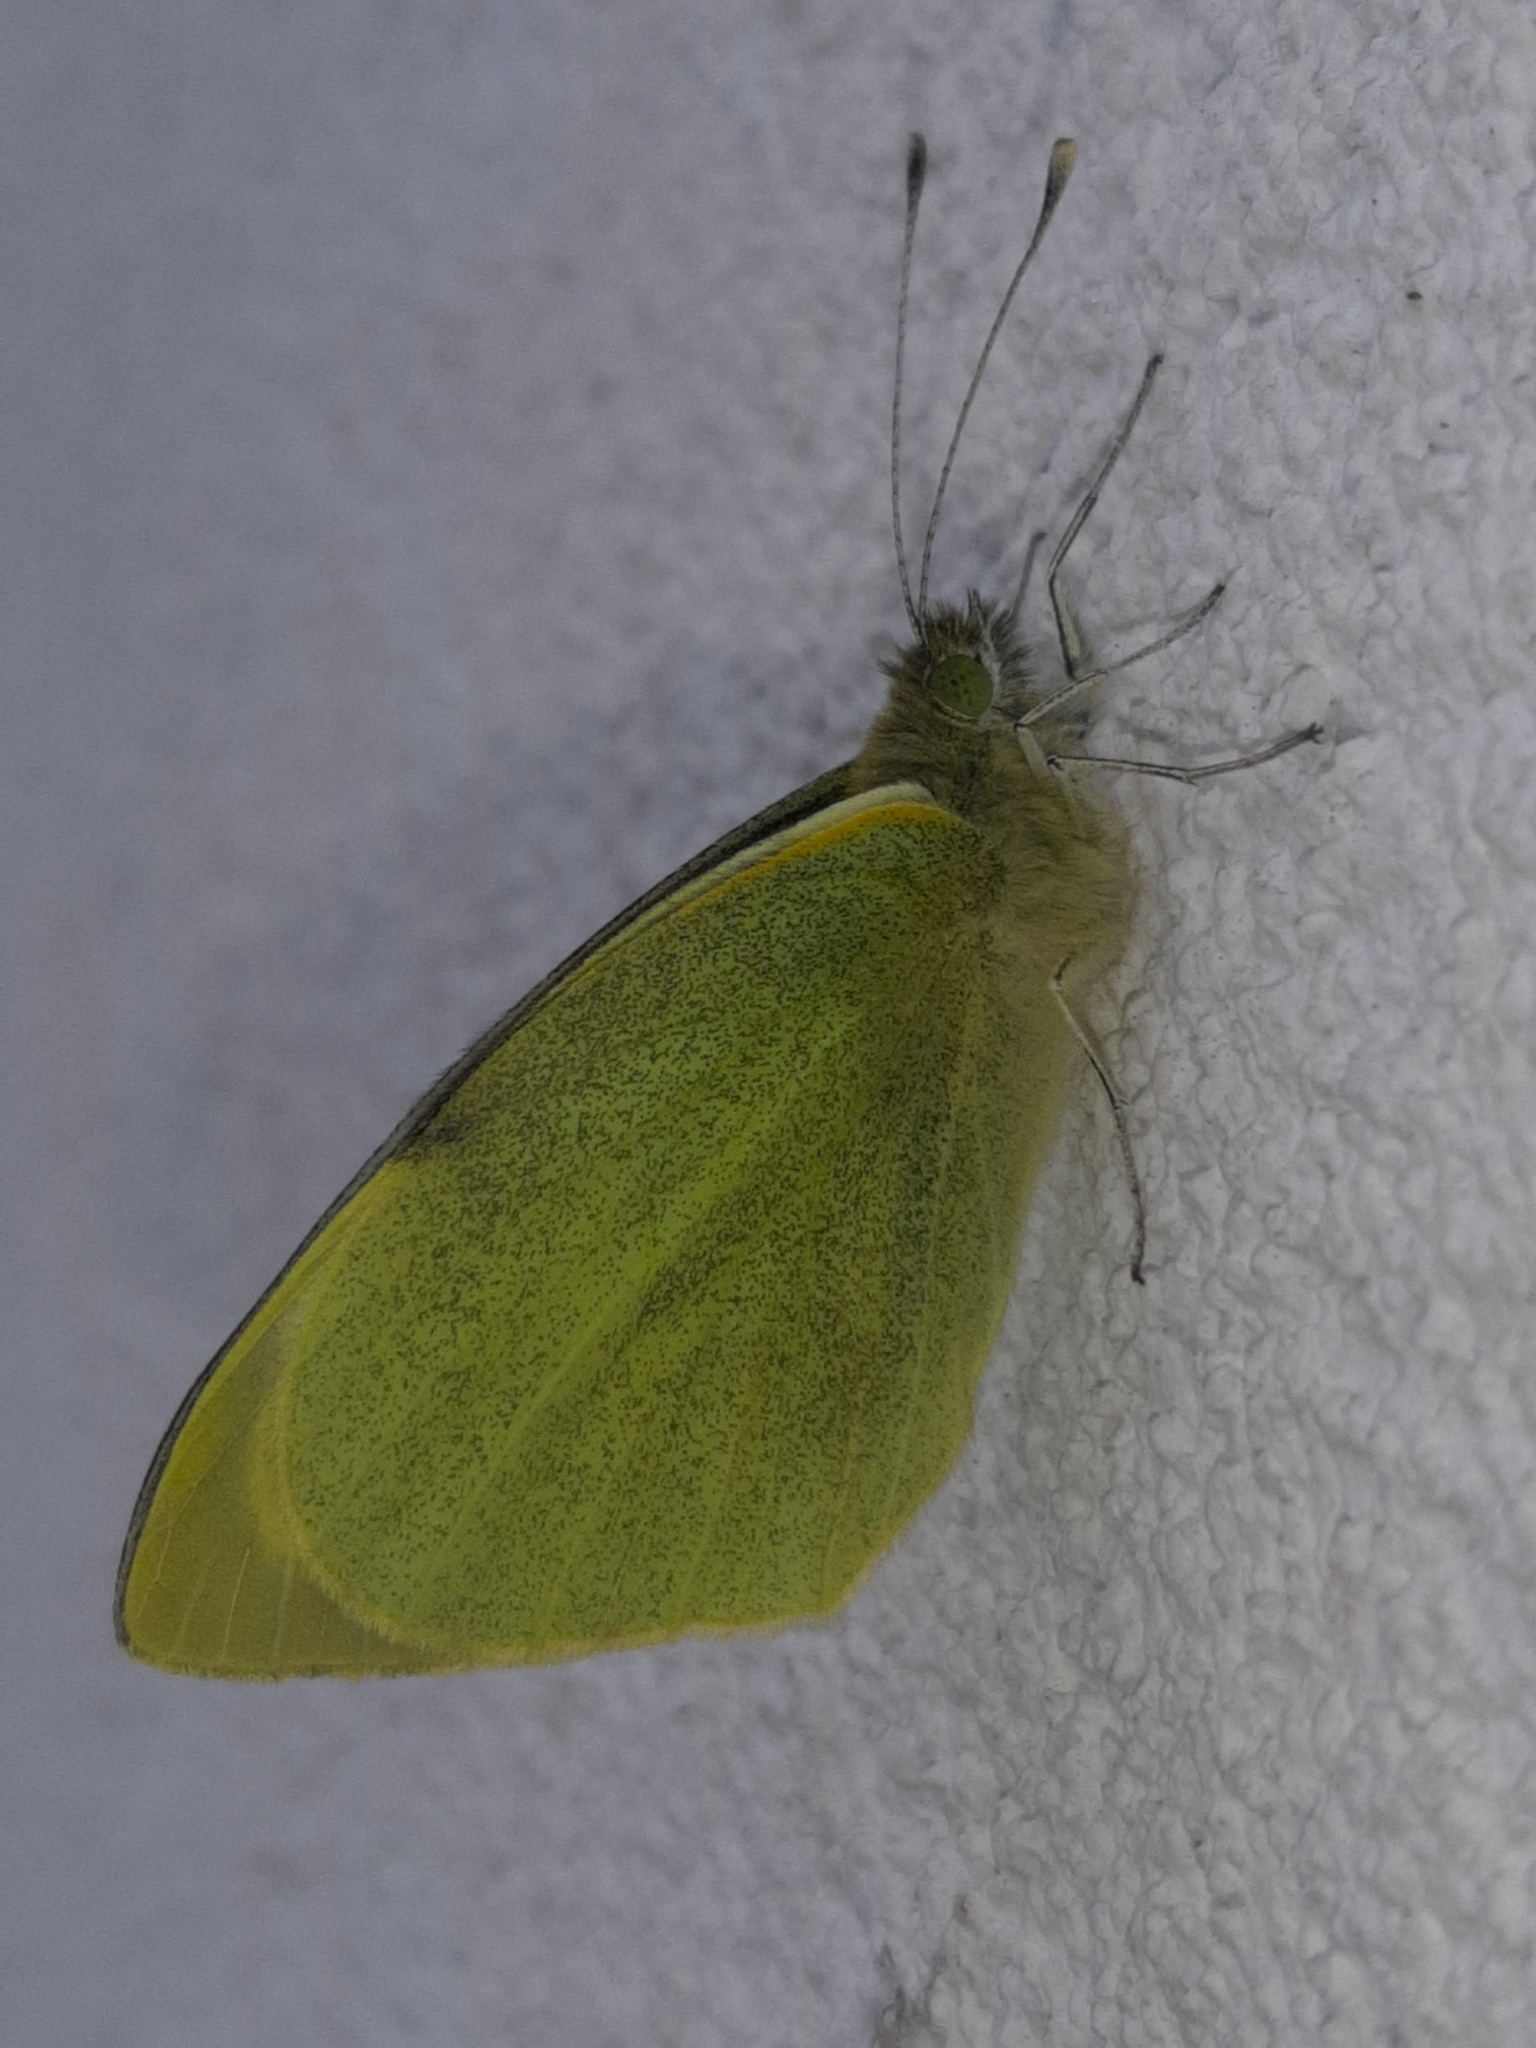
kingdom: Animalia
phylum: Arthropoda
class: Insecta
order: Lepidoptera
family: Pieridae
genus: Pieris
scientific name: Pieris brassicae
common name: Large white
